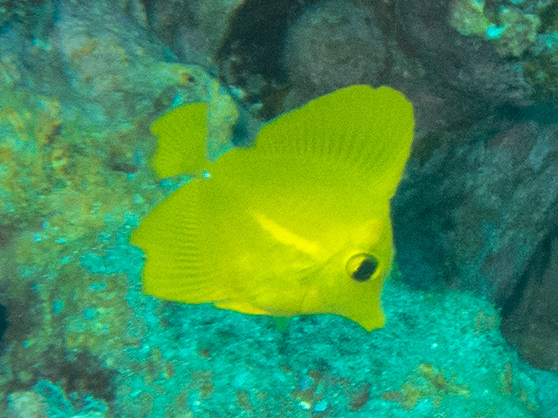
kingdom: Animalia
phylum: Chordata
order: Perciformes
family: Acanthuridae
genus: Zebrasoma
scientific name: Zebrasoma flavescens
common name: Yellow tang
